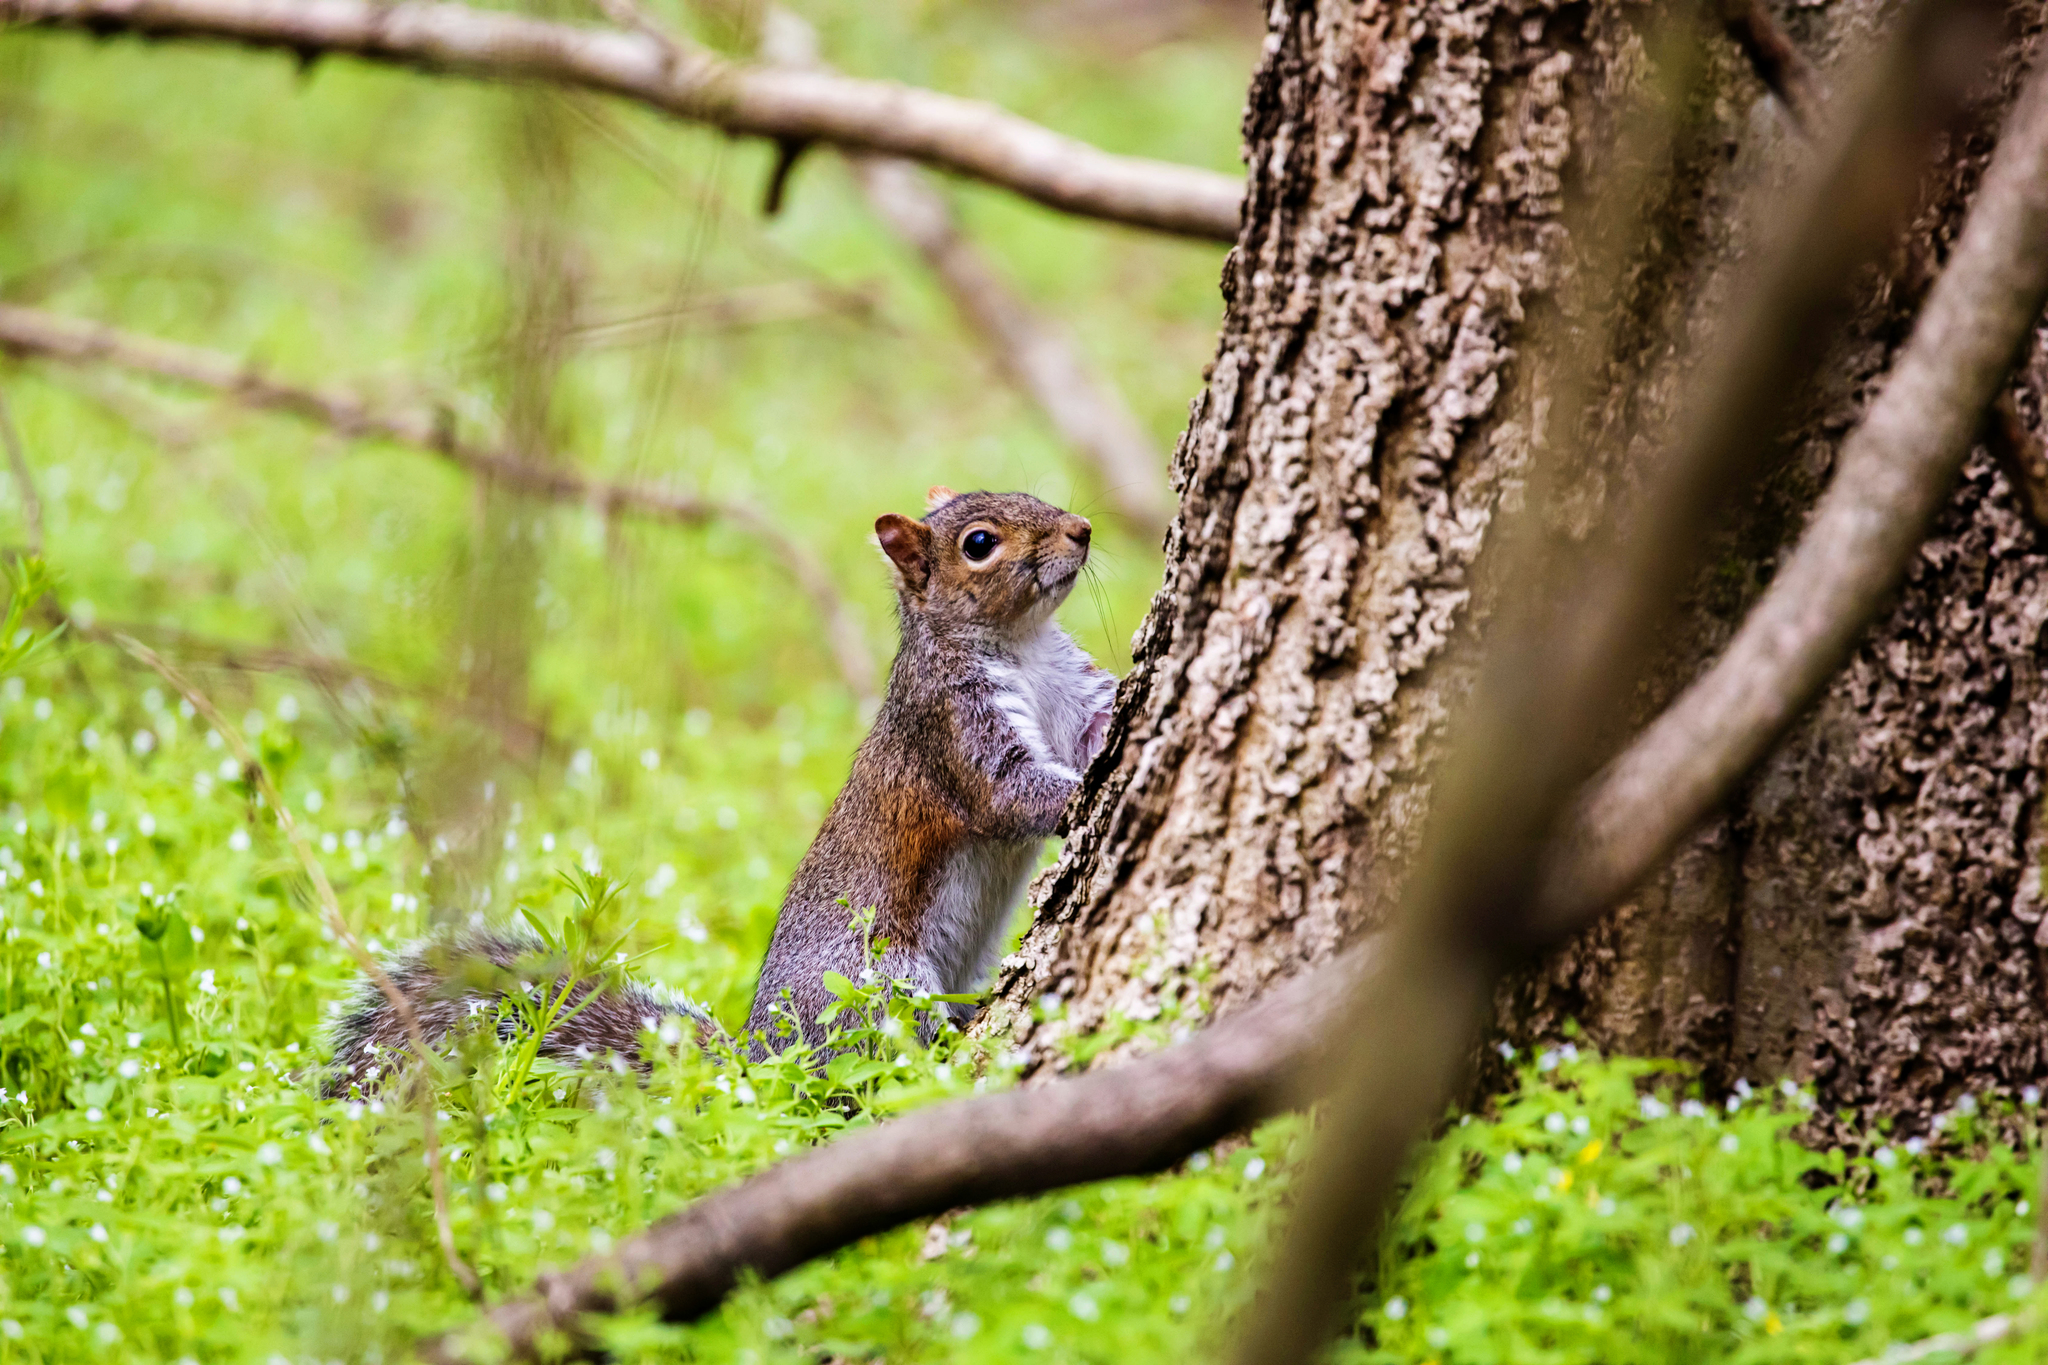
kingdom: Animalia
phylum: Chordata
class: Mammalia
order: Rodentia
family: Sciuridae
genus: Sciurus
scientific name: Sciurus carolinensis
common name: Eastern gray squirrel
